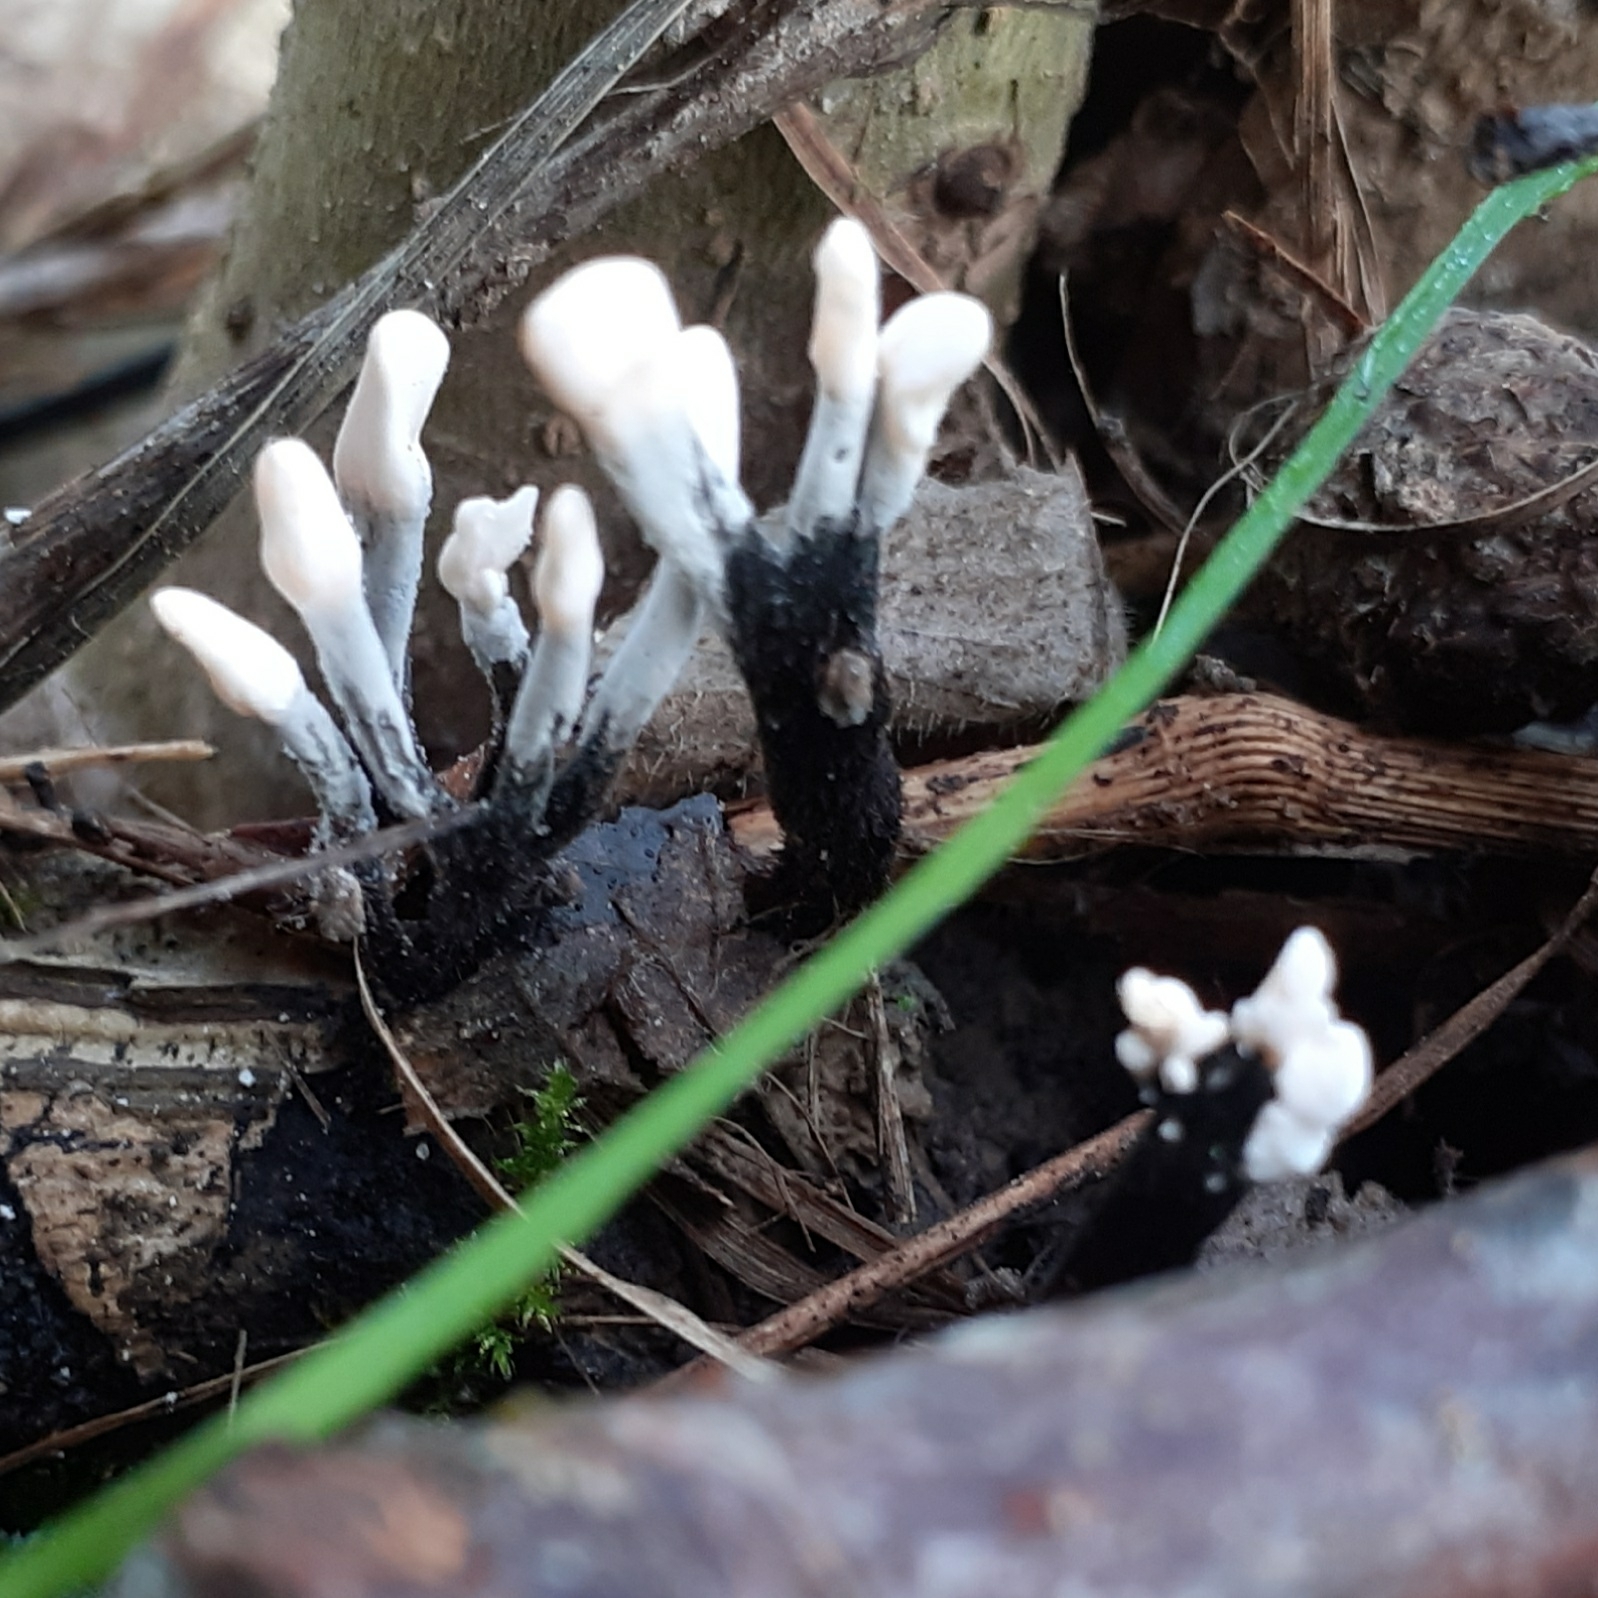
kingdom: Fungi
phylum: Ascomycota
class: Sordariomycetes
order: Xylariales
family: Xylariaceae
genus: Xylaria
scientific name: Xylaria hypoxylon
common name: Candle-snuff fungus
